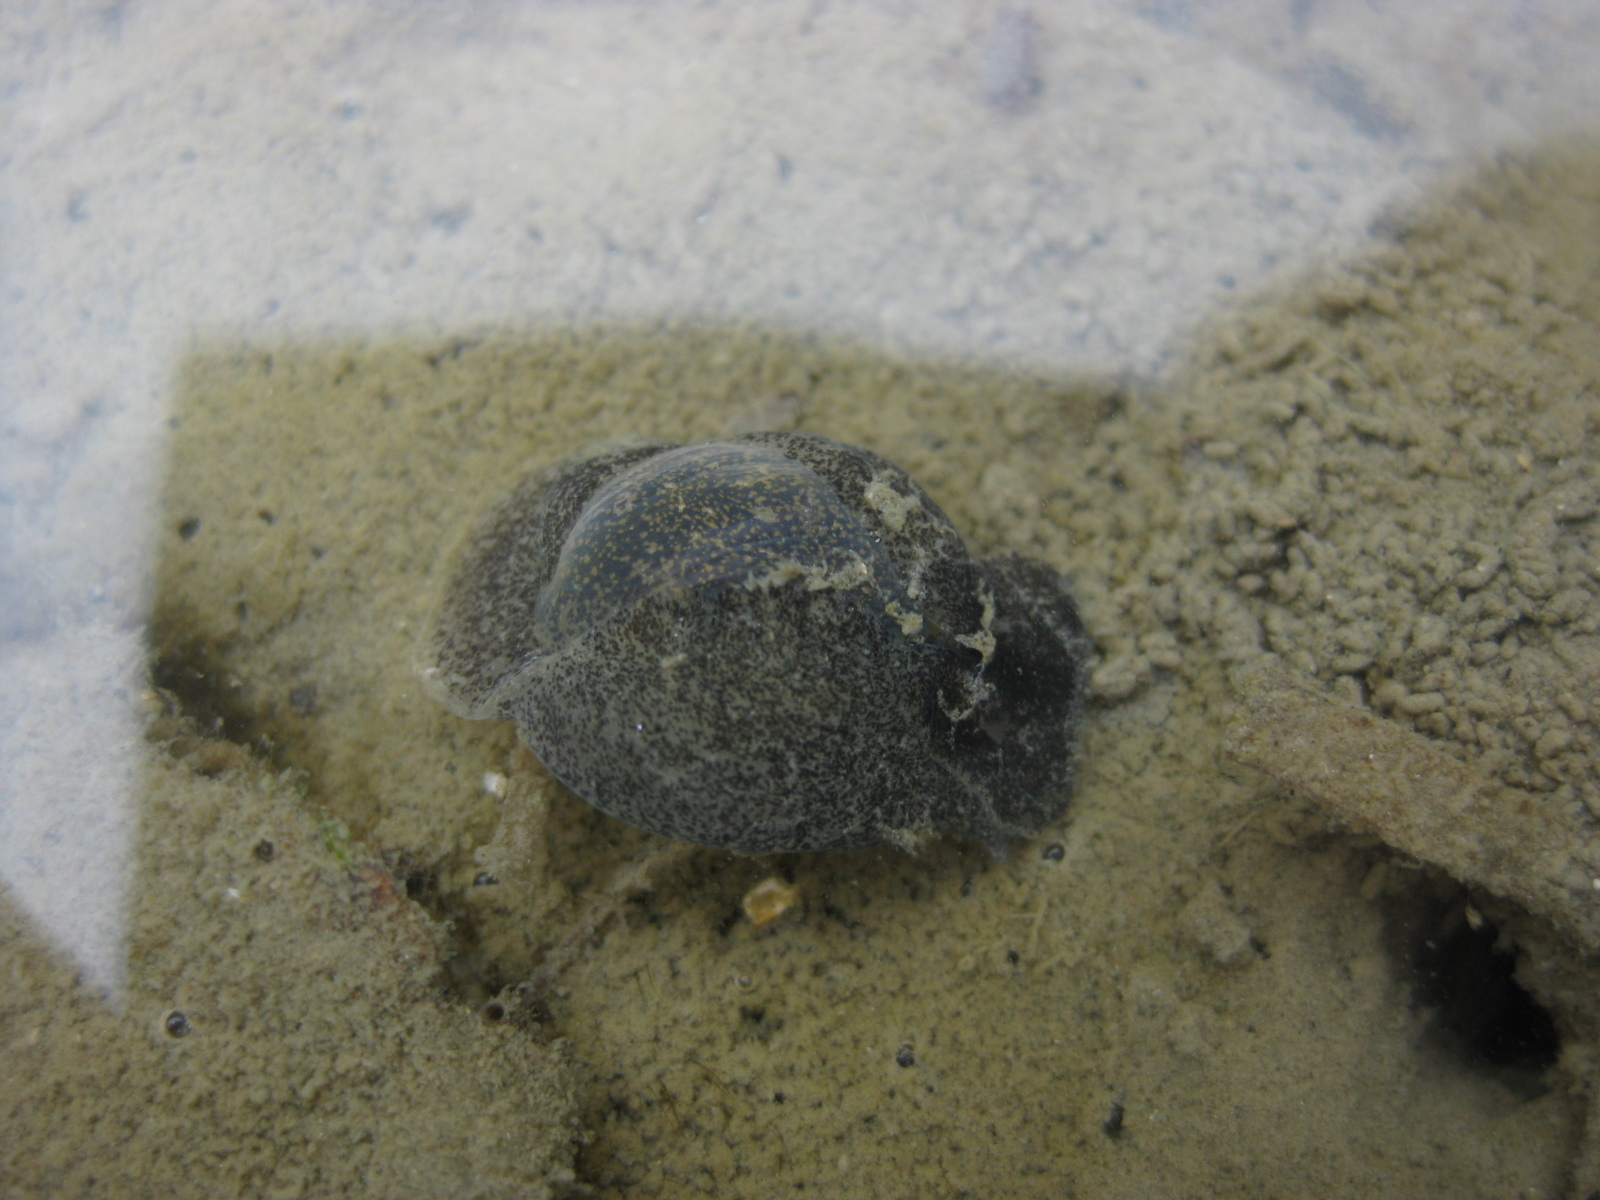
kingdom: Animalia
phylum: Mollusca
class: Gastropoda
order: Cephalaspidea
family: Haminoeidae
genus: Papawera
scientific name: Papawera zelandiae
